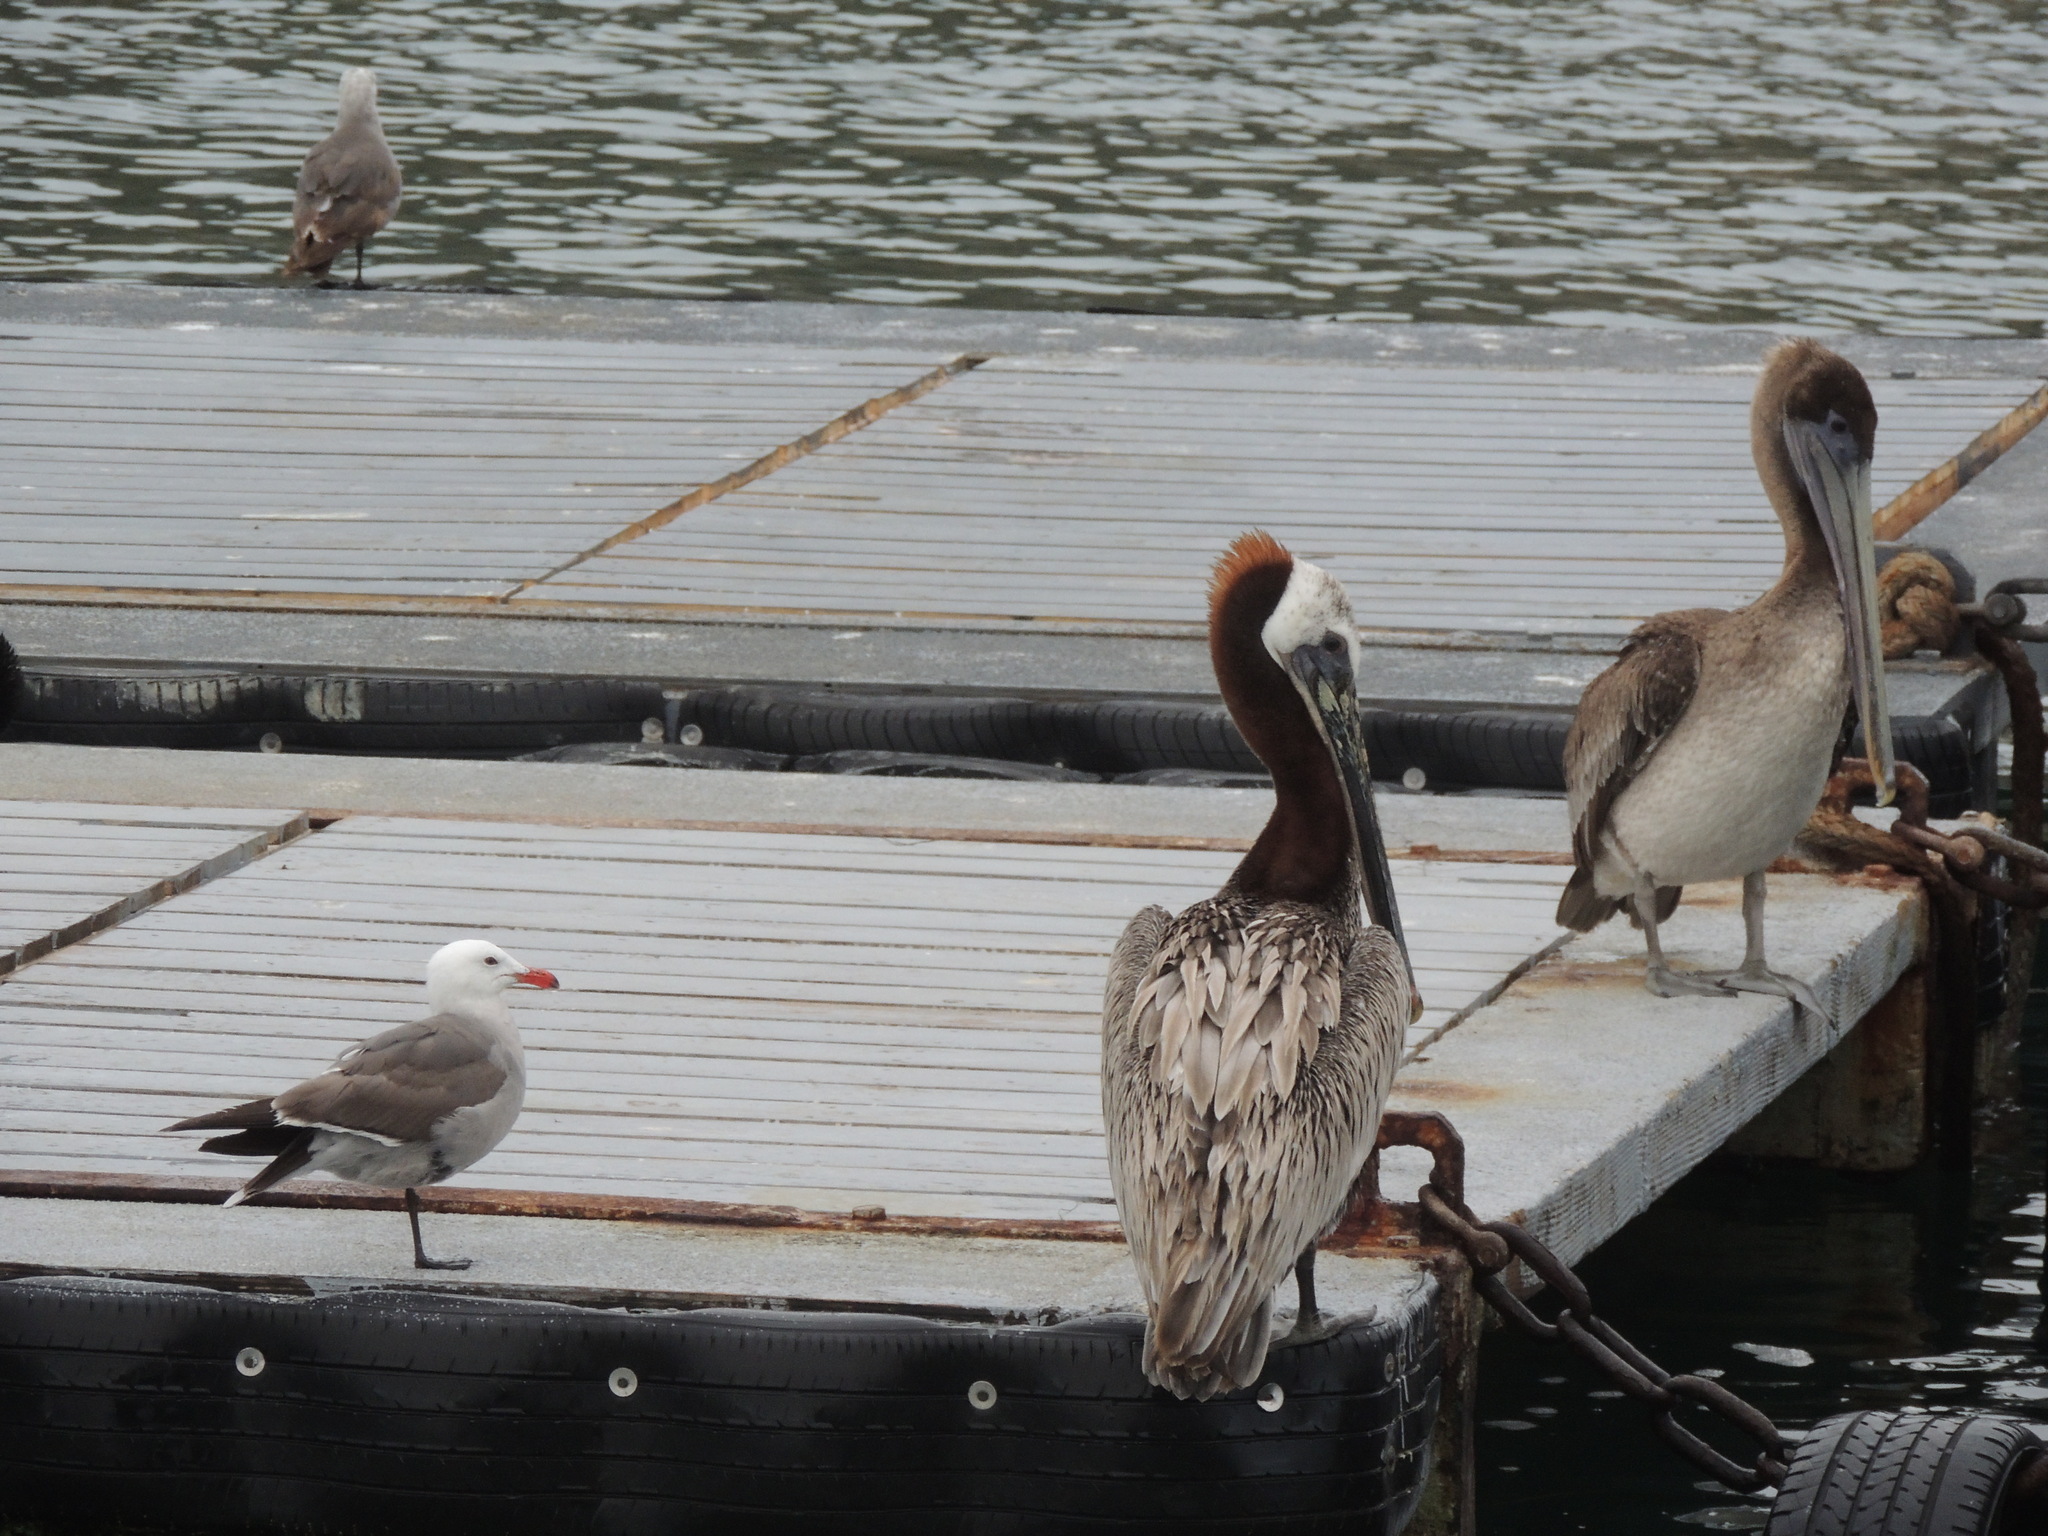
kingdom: Animalia
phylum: Chordata
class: Aves
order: Pelecaniformes
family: Pelecanidae
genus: Pelecanus
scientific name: Pelecanus occidentalis
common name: Brown pelican
